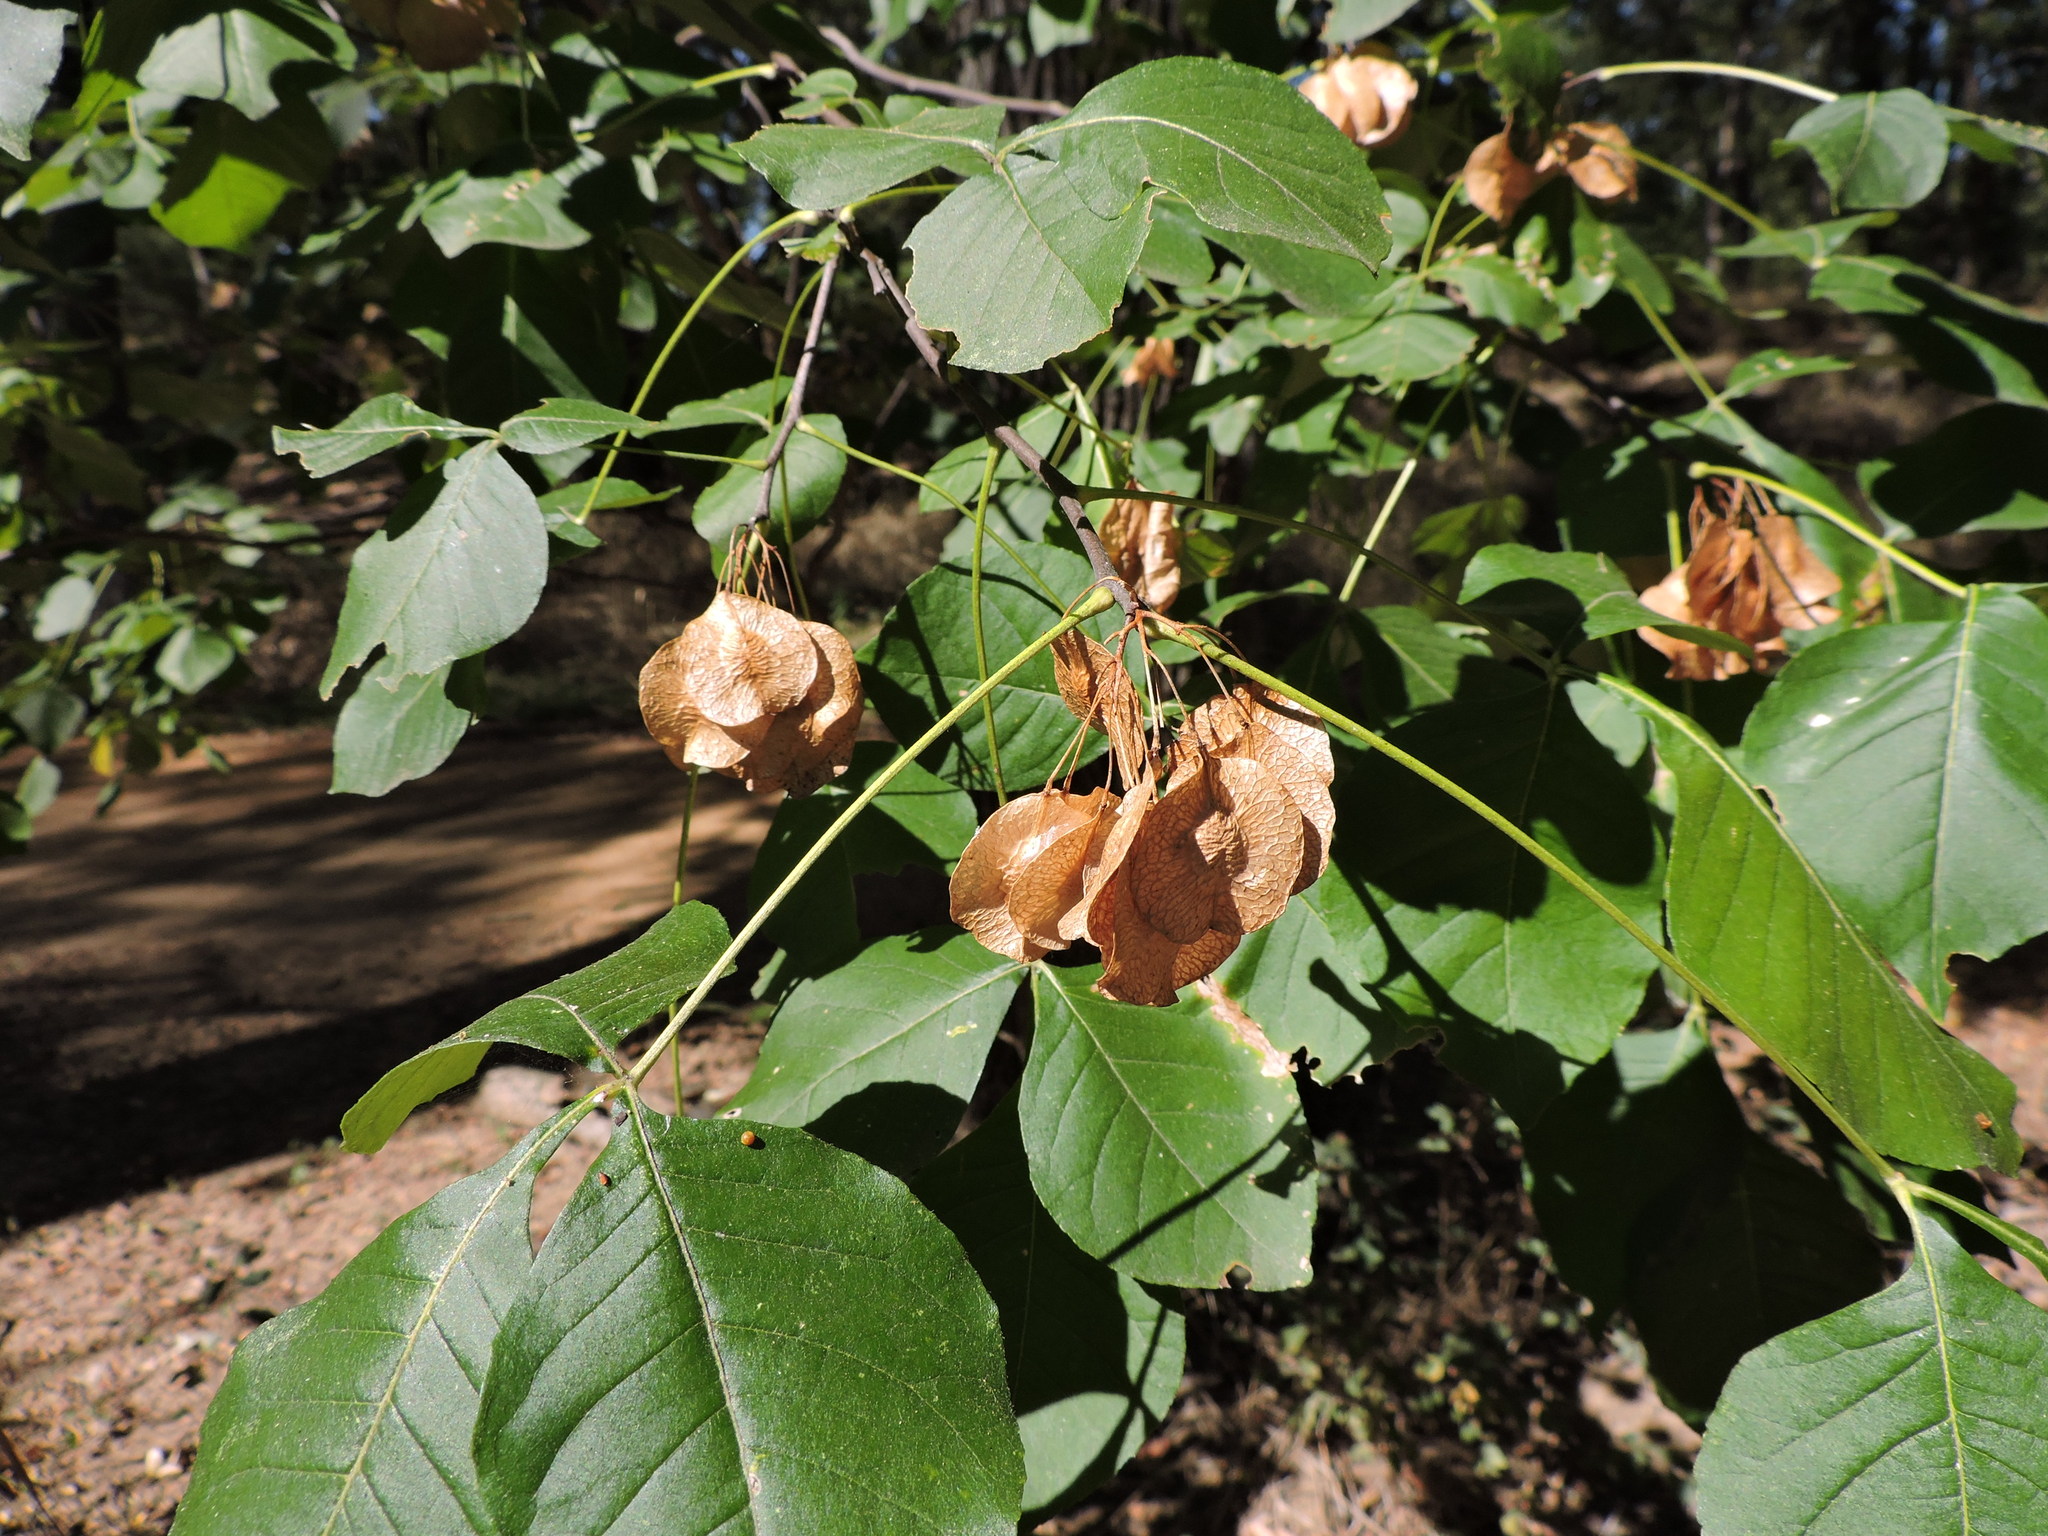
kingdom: Plantae
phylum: Tracheophyta
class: Magnoliopsida
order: Sapindales
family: Rutaceae
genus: Ptelea
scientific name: Ptelea trifoliata
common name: Common hop-tree
